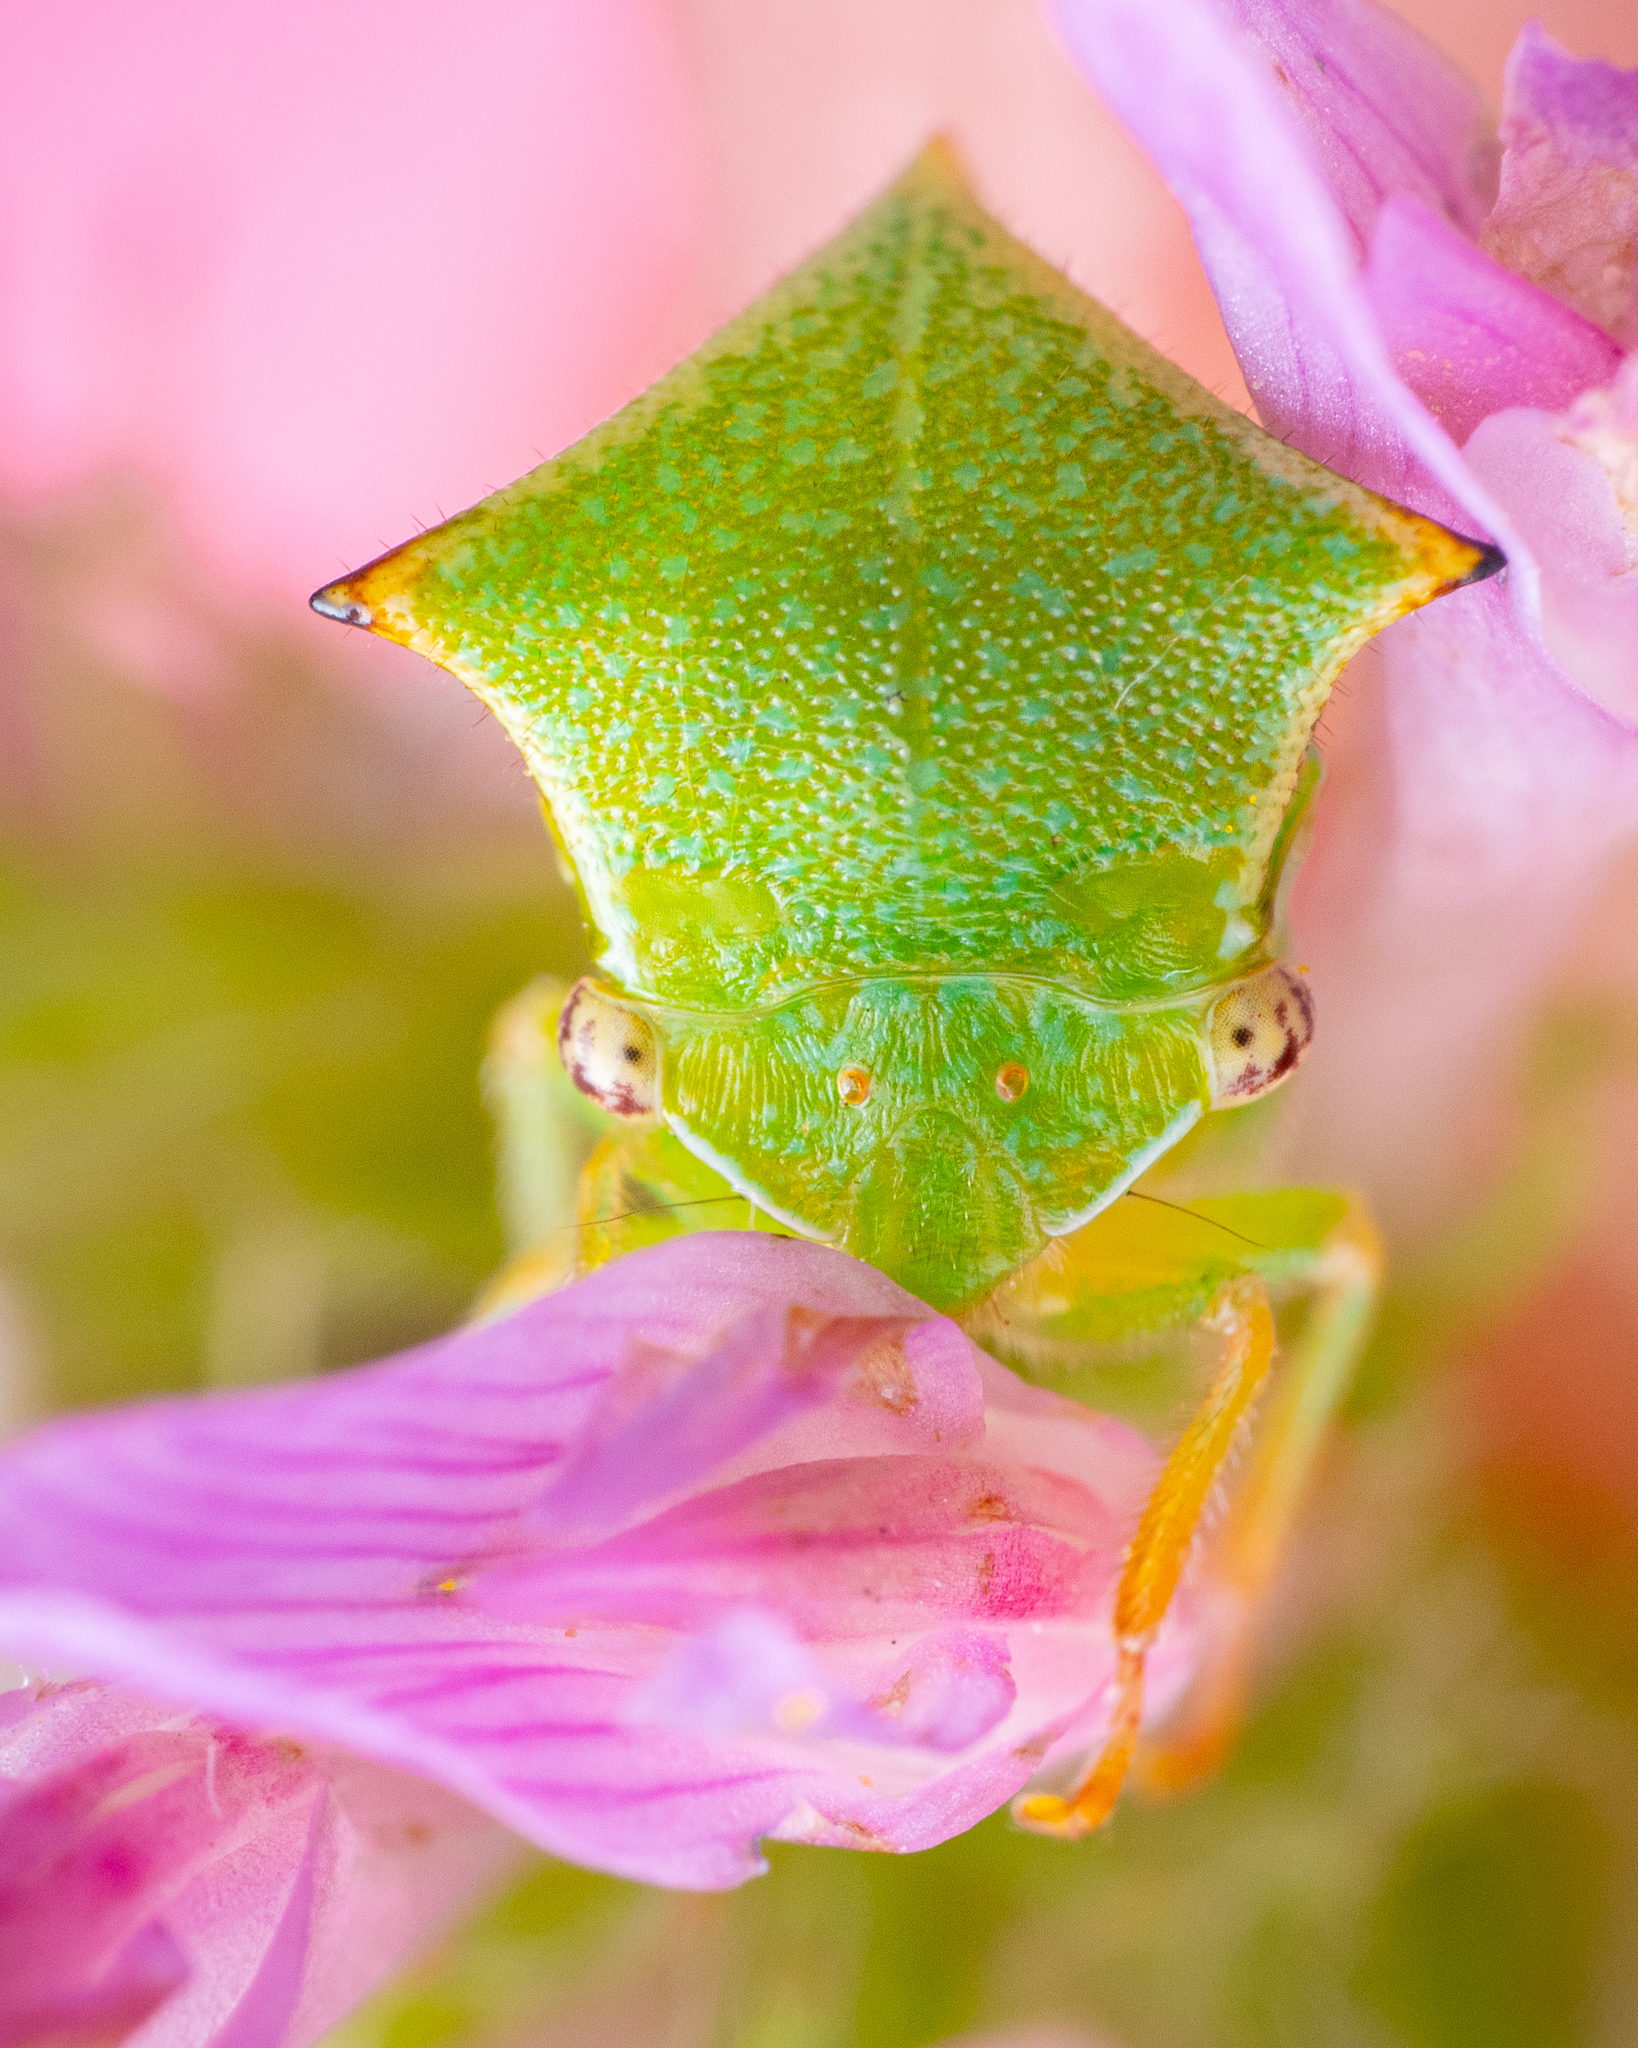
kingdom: Animalia
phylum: Arthropoda
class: Insecta
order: Hemiptera
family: Membracidae
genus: Stictocephala
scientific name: Stictocephala bisonia
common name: American buffalo treehopper
